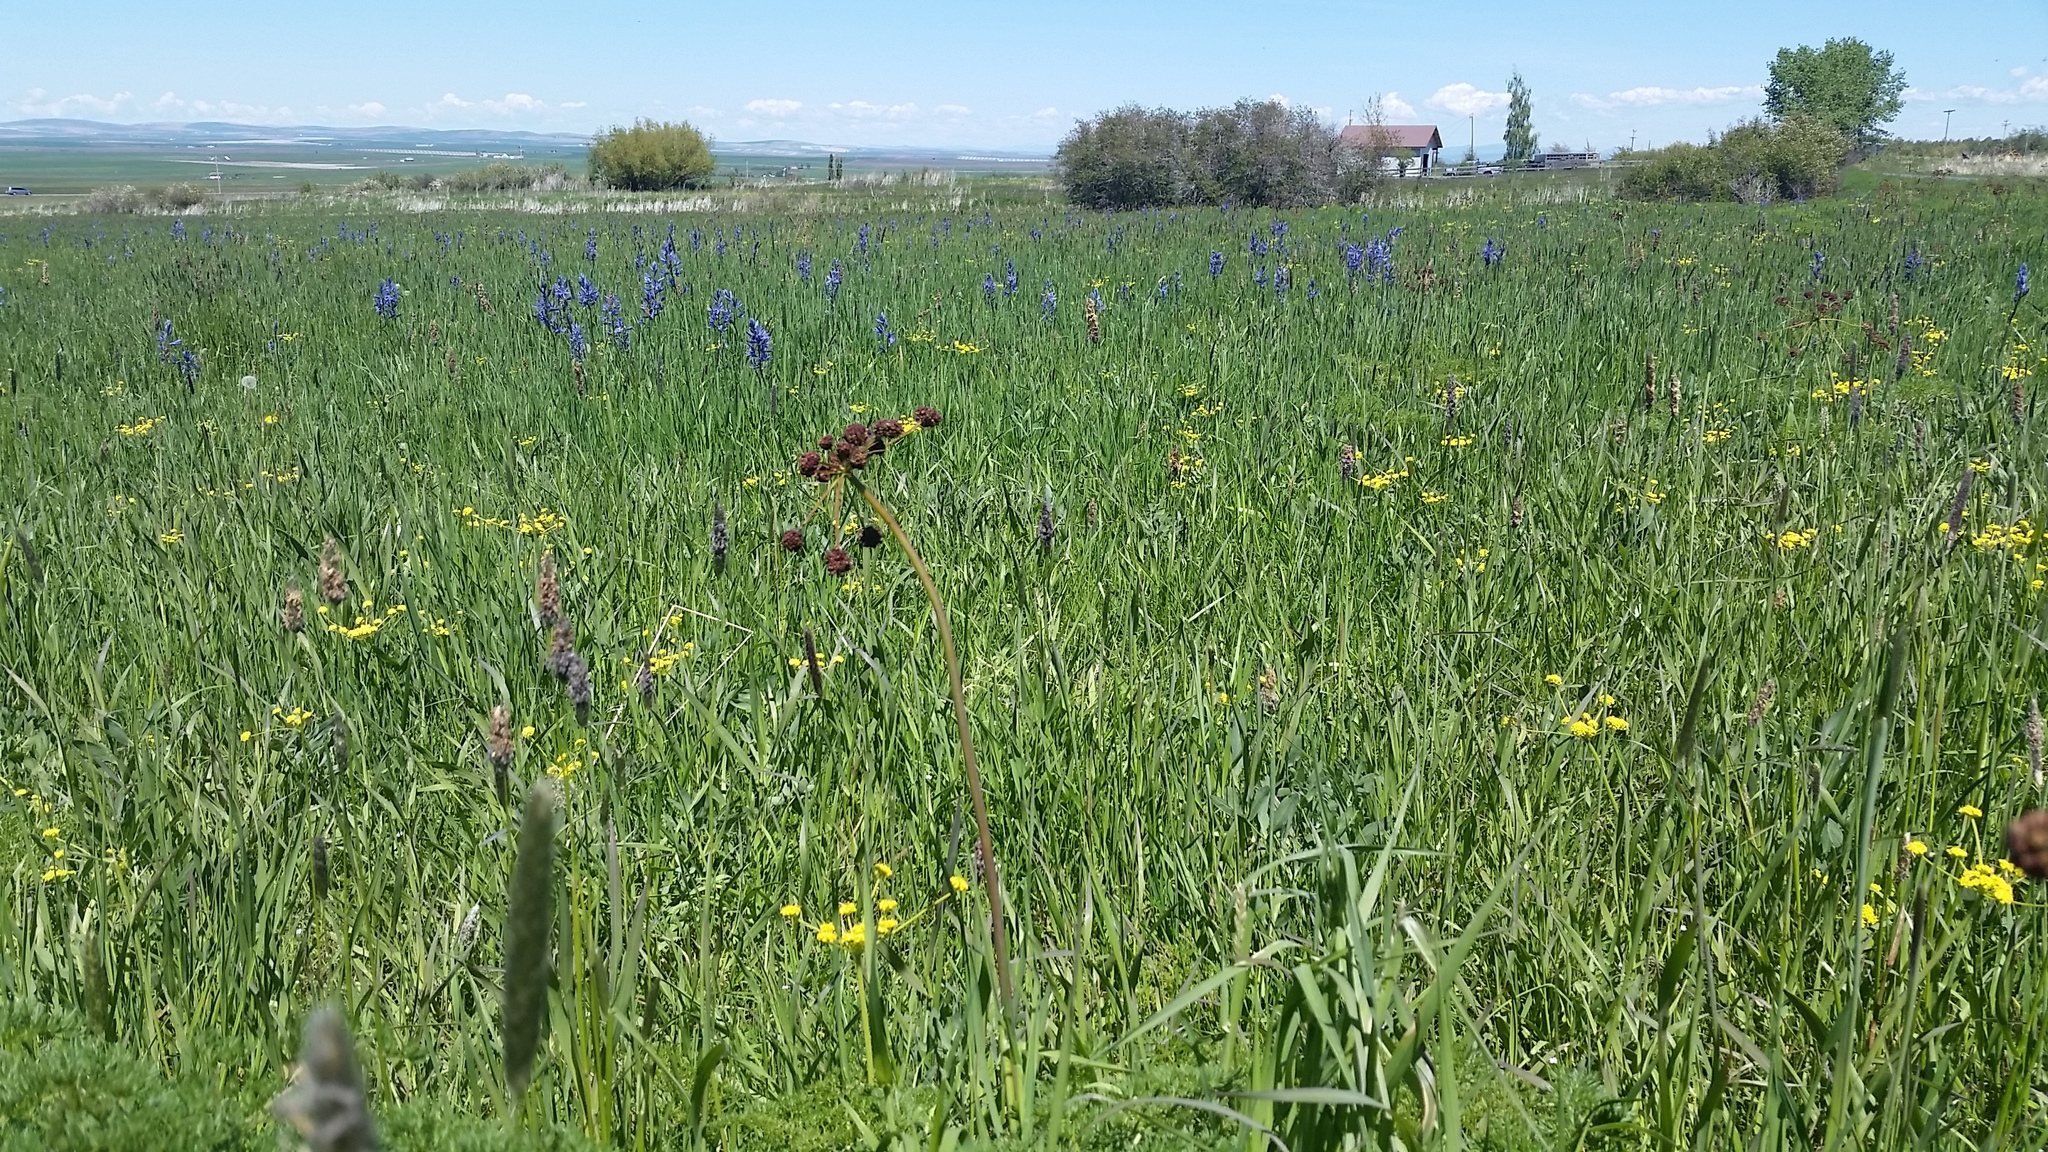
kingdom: Plantae
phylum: Tracheophyta
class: Magnoliopsida
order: Apiales
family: Apiaceae
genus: Lomatium
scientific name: Lomatium dissectum
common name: Lomatium
